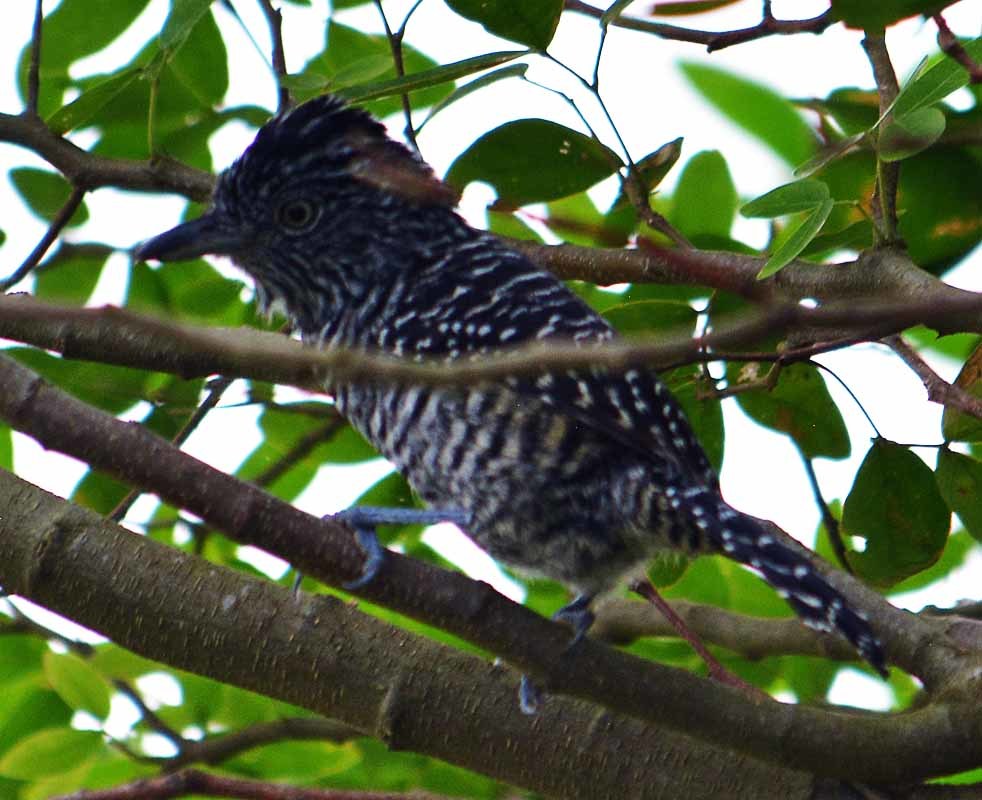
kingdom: Animalia
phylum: Chordata
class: Aves
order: Passeriformes
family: Thamnophilidae
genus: Thamnophilus
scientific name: Thamnophilus doliatus
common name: Barred antshrike
